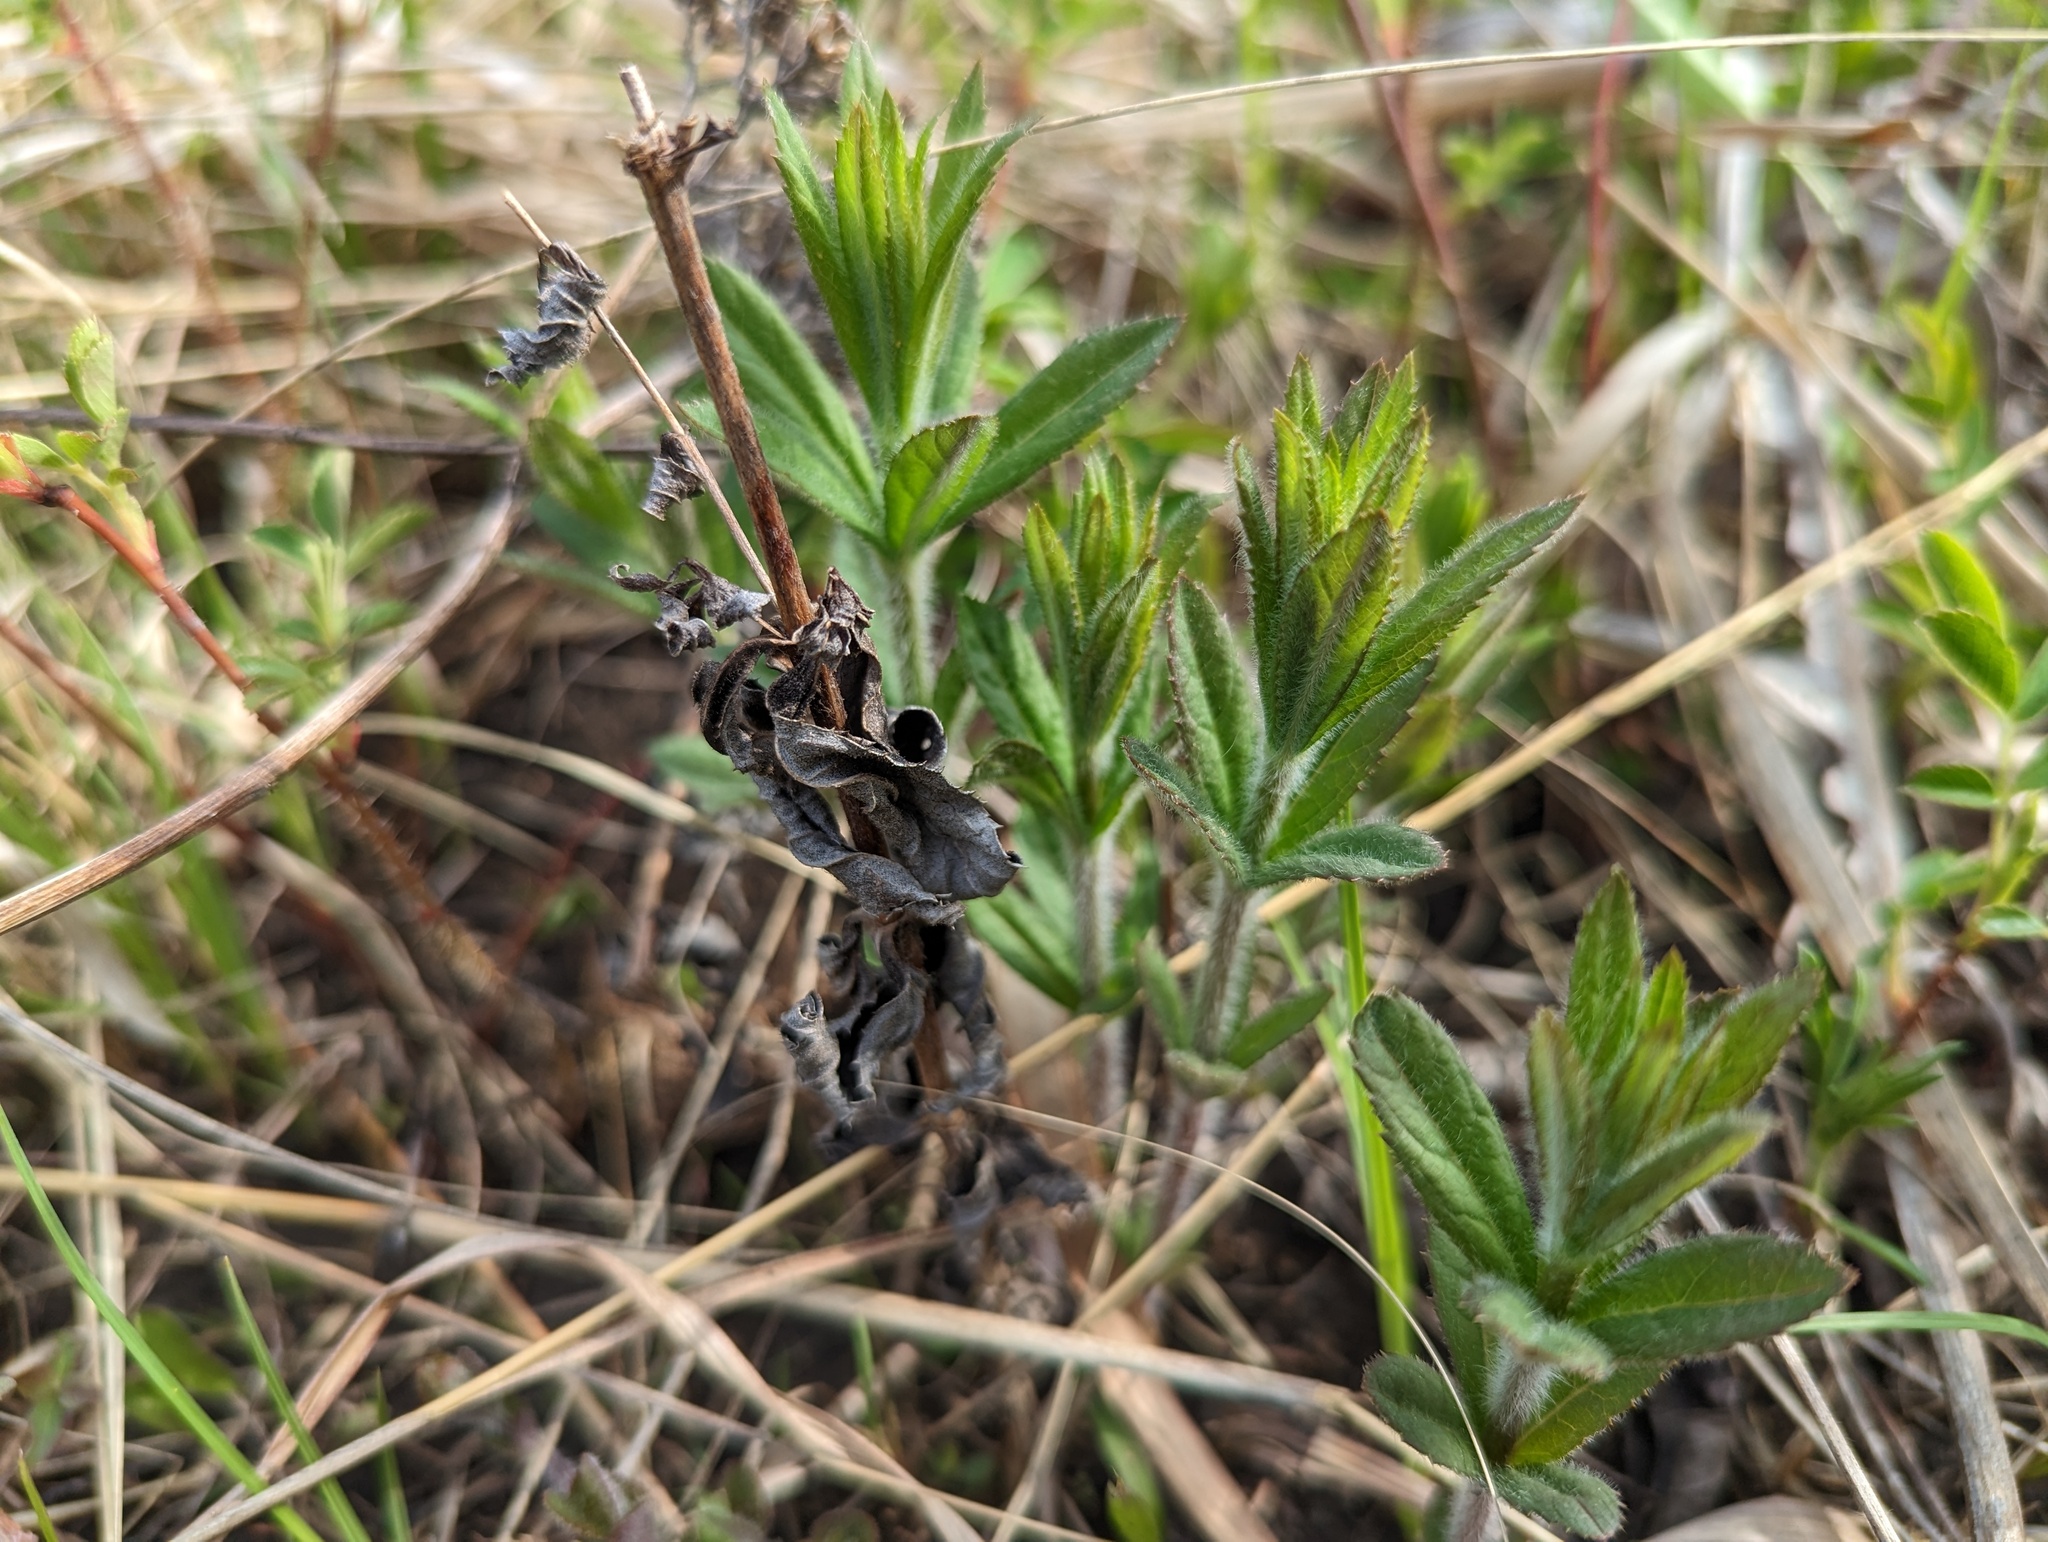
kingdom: Plantae
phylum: Tracheophyta
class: Magnoliopsida
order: Lamiales
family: Plantaginaceae
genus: Veronicastrum
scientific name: Veronicastrum virginicum
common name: Blackroot
